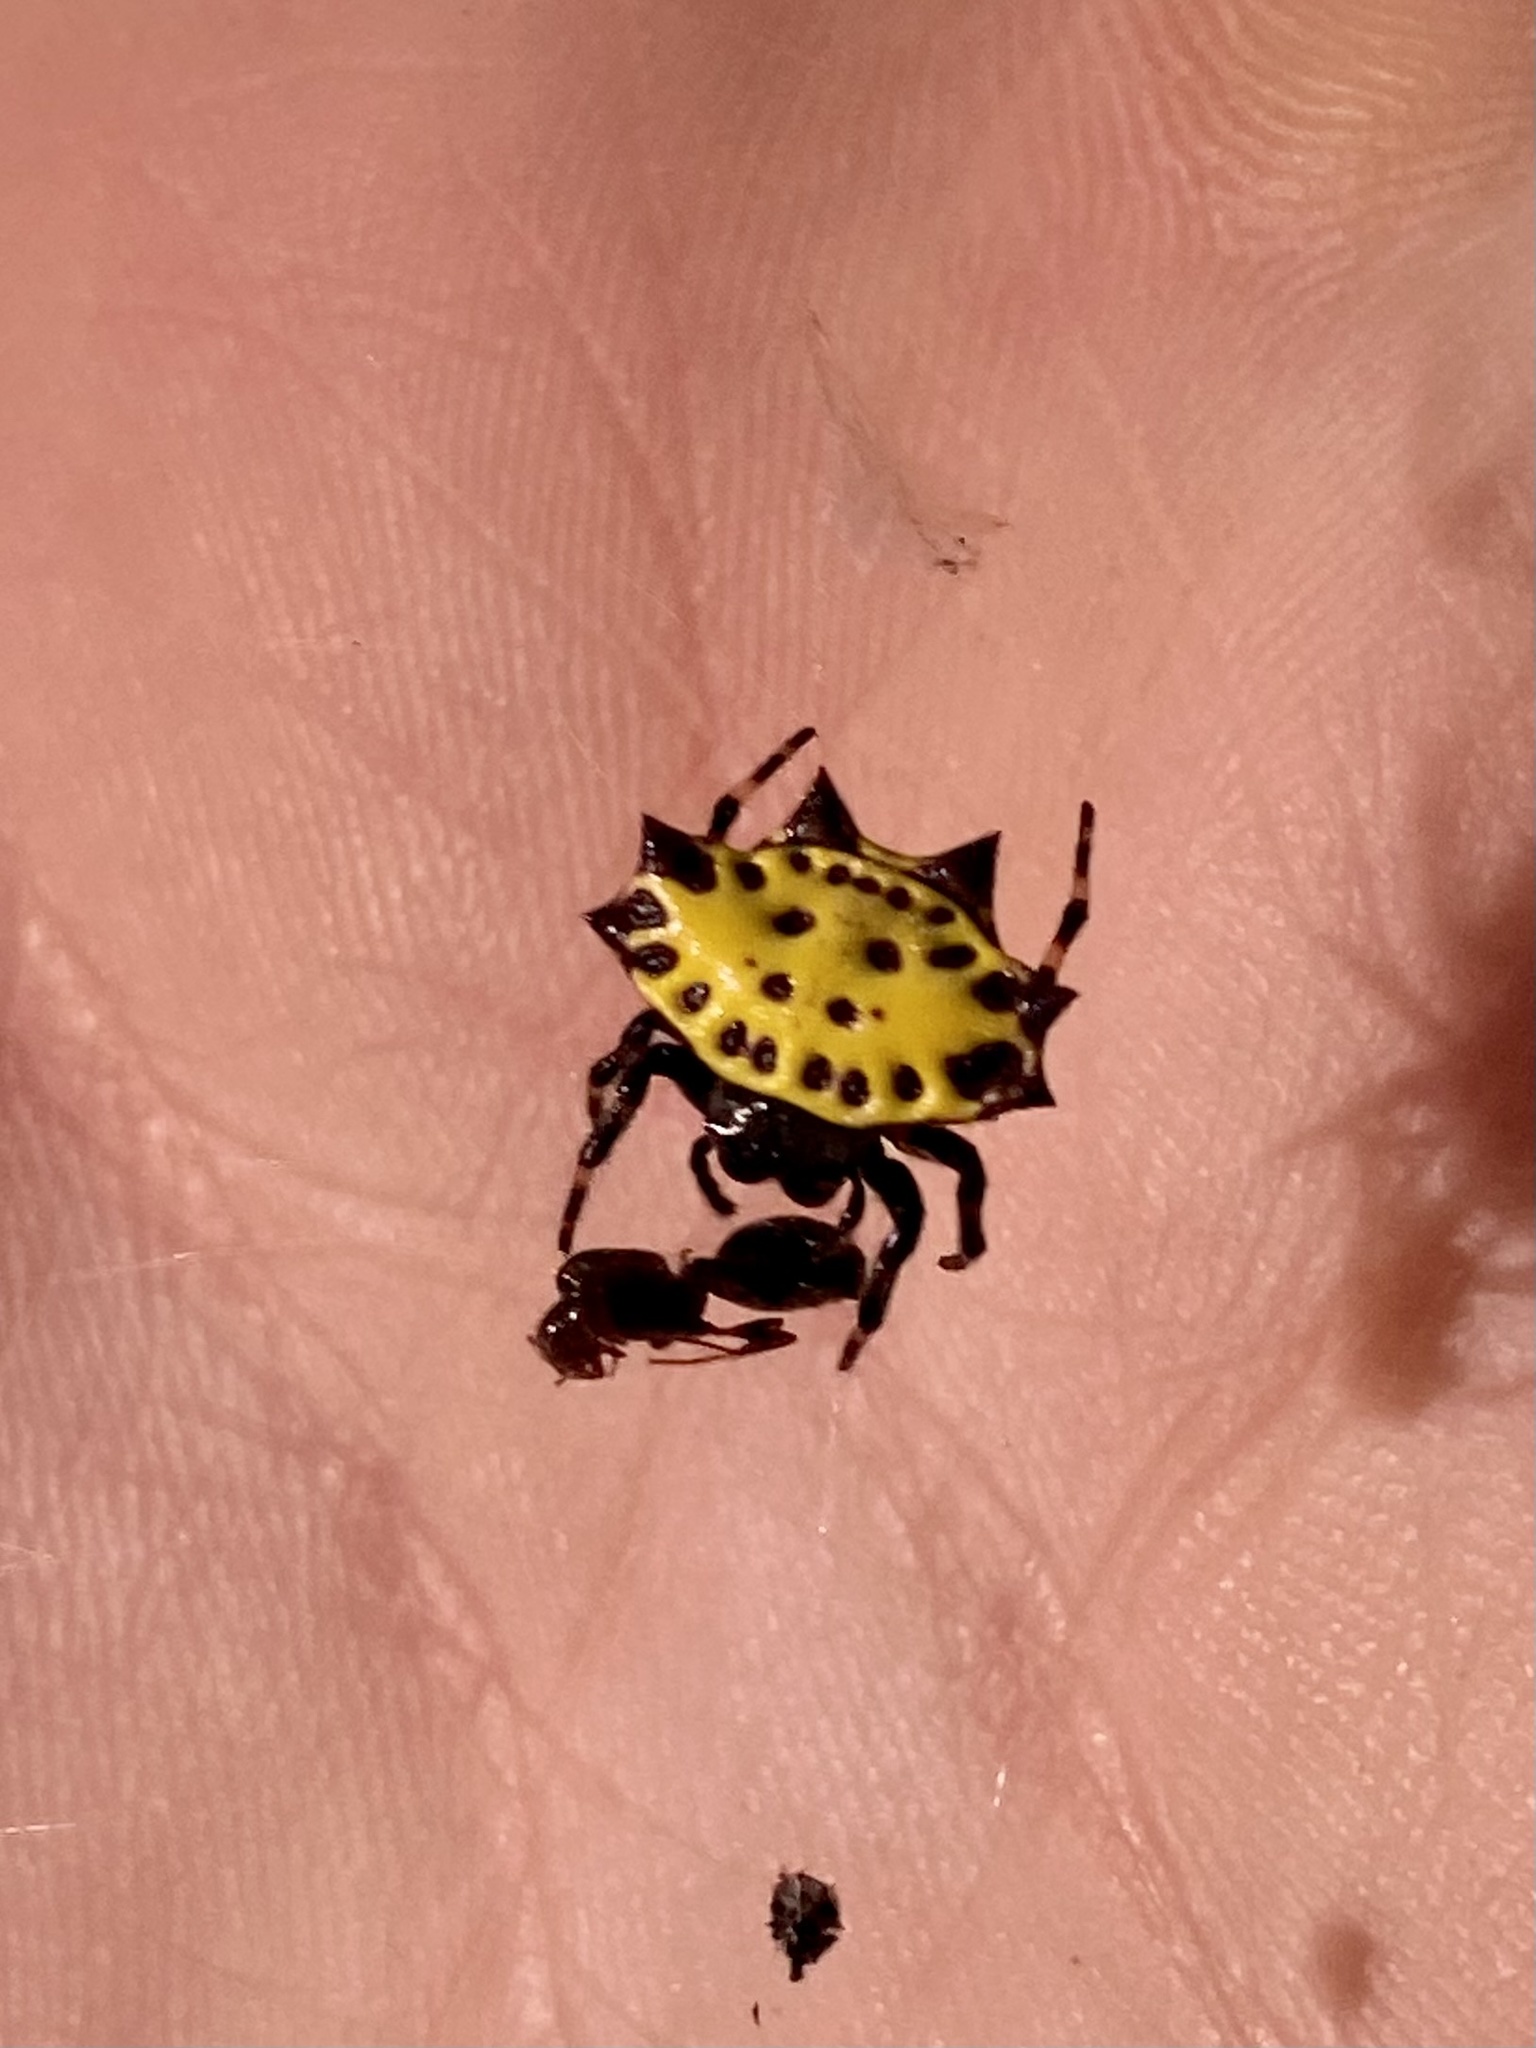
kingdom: Animalia
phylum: Arthropoda
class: Arachnida
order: Araneae
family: Araneidae
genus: Gasteracantha
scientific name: Gasteracantha cancriformis
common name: Orb weavers
